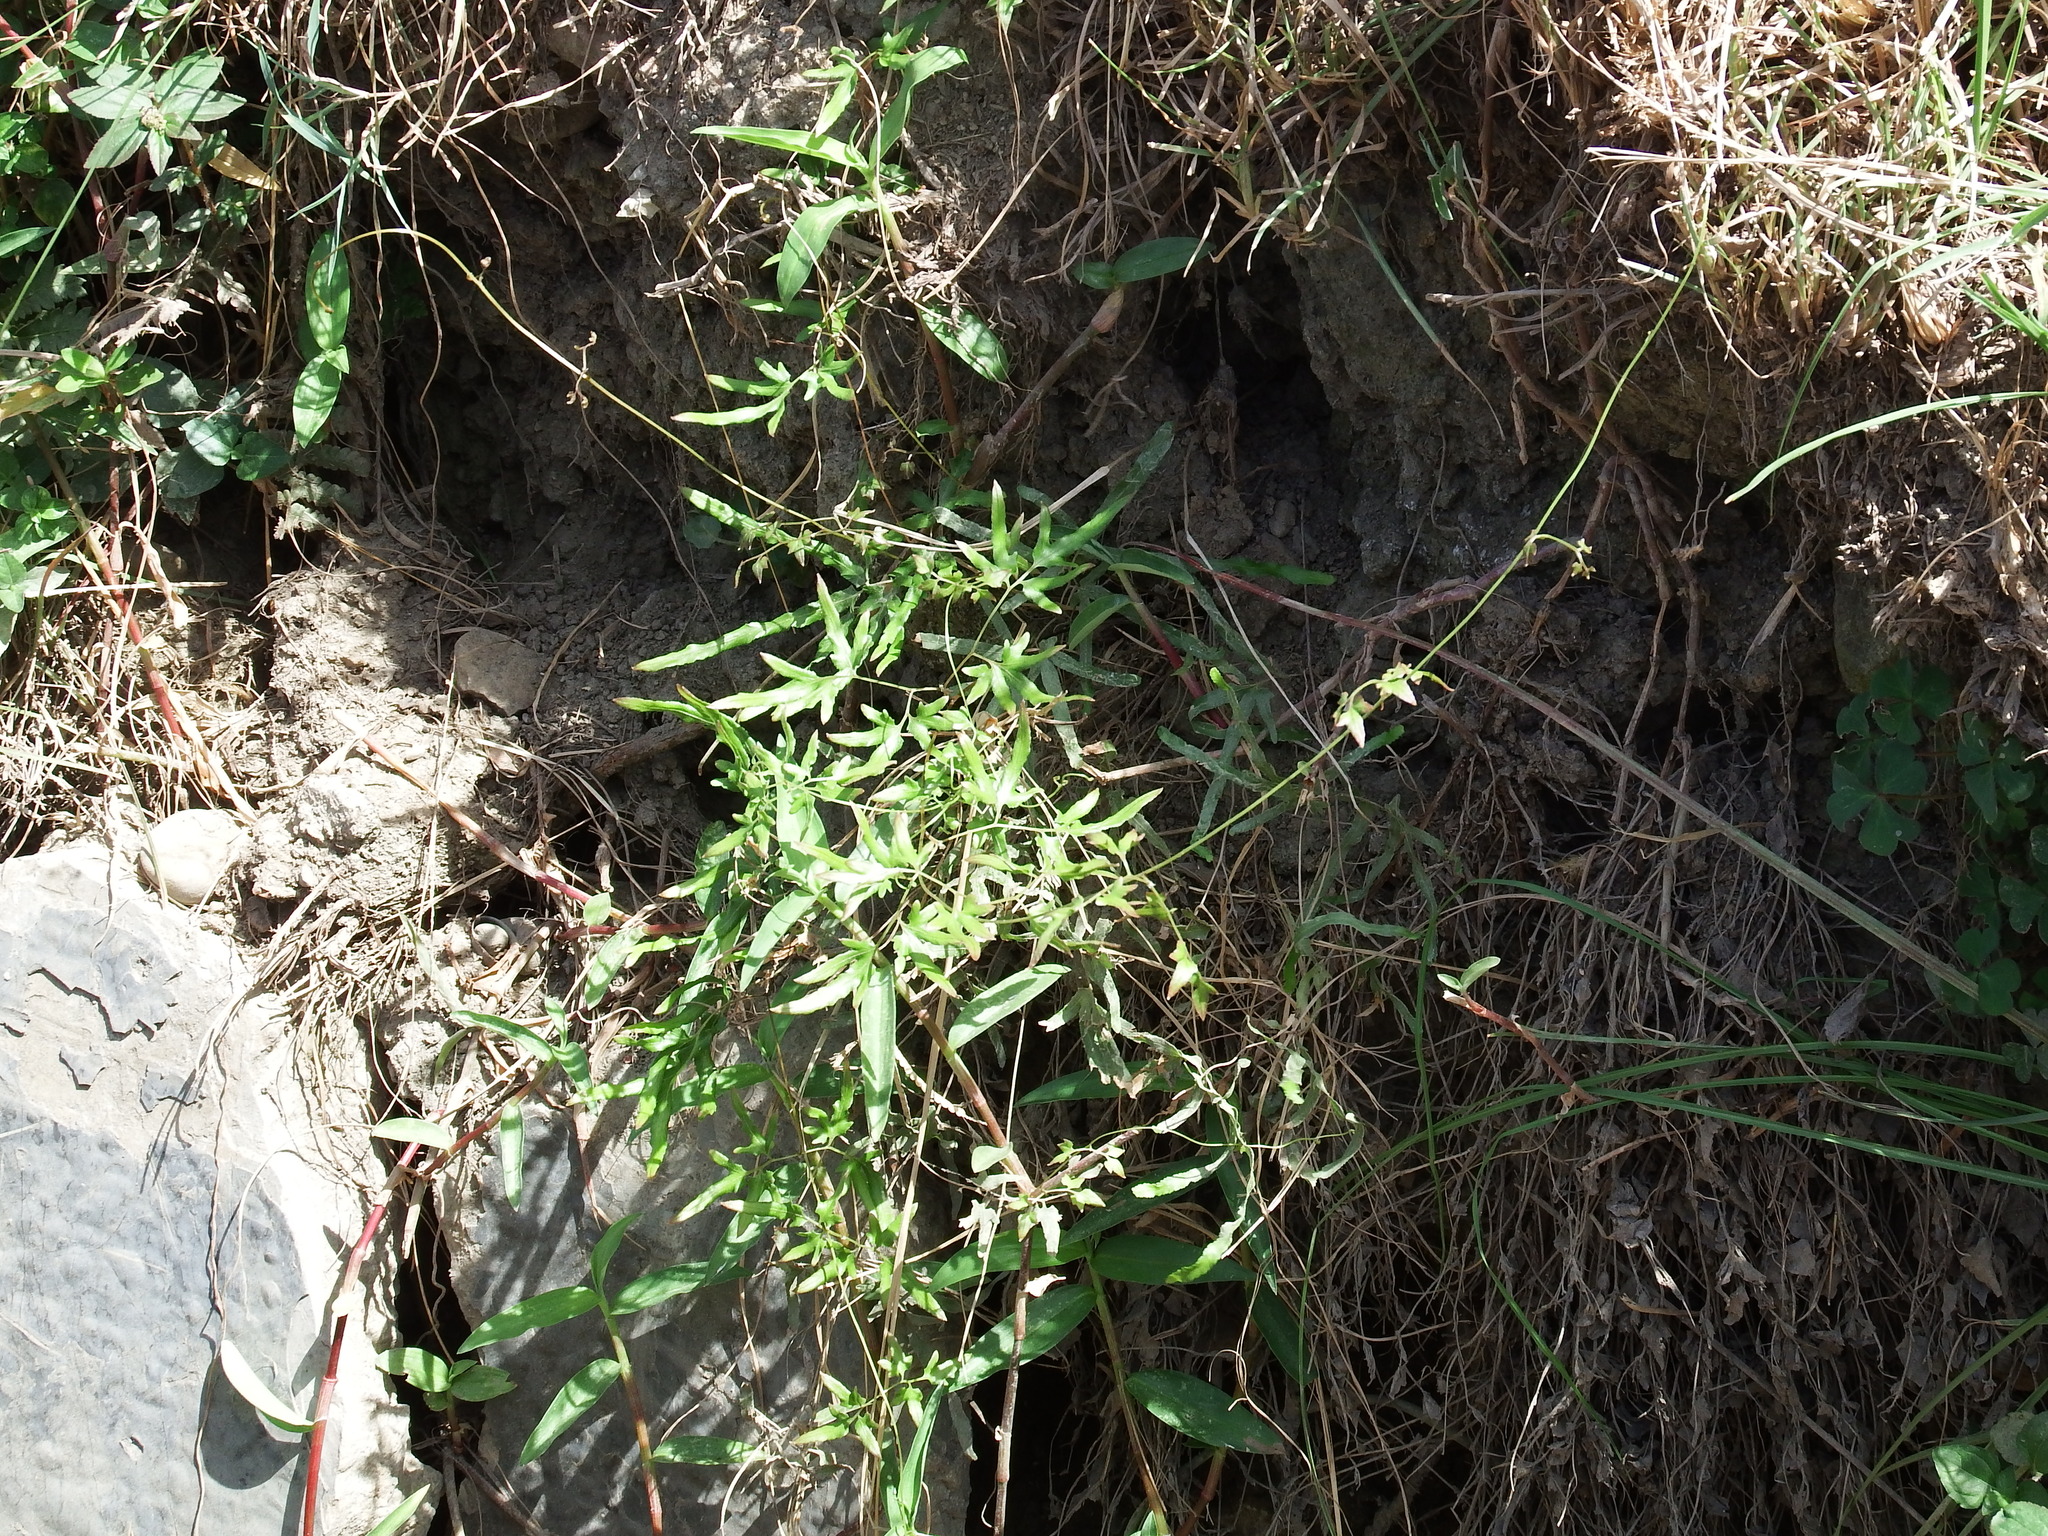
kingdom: Plantae
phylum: Tracheophyta
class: Polypodiopsida
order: Schizaeales
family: Lygodiaceae
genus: Lygodium
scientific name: Lygodium japonicum
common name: Japanese climbing fern
